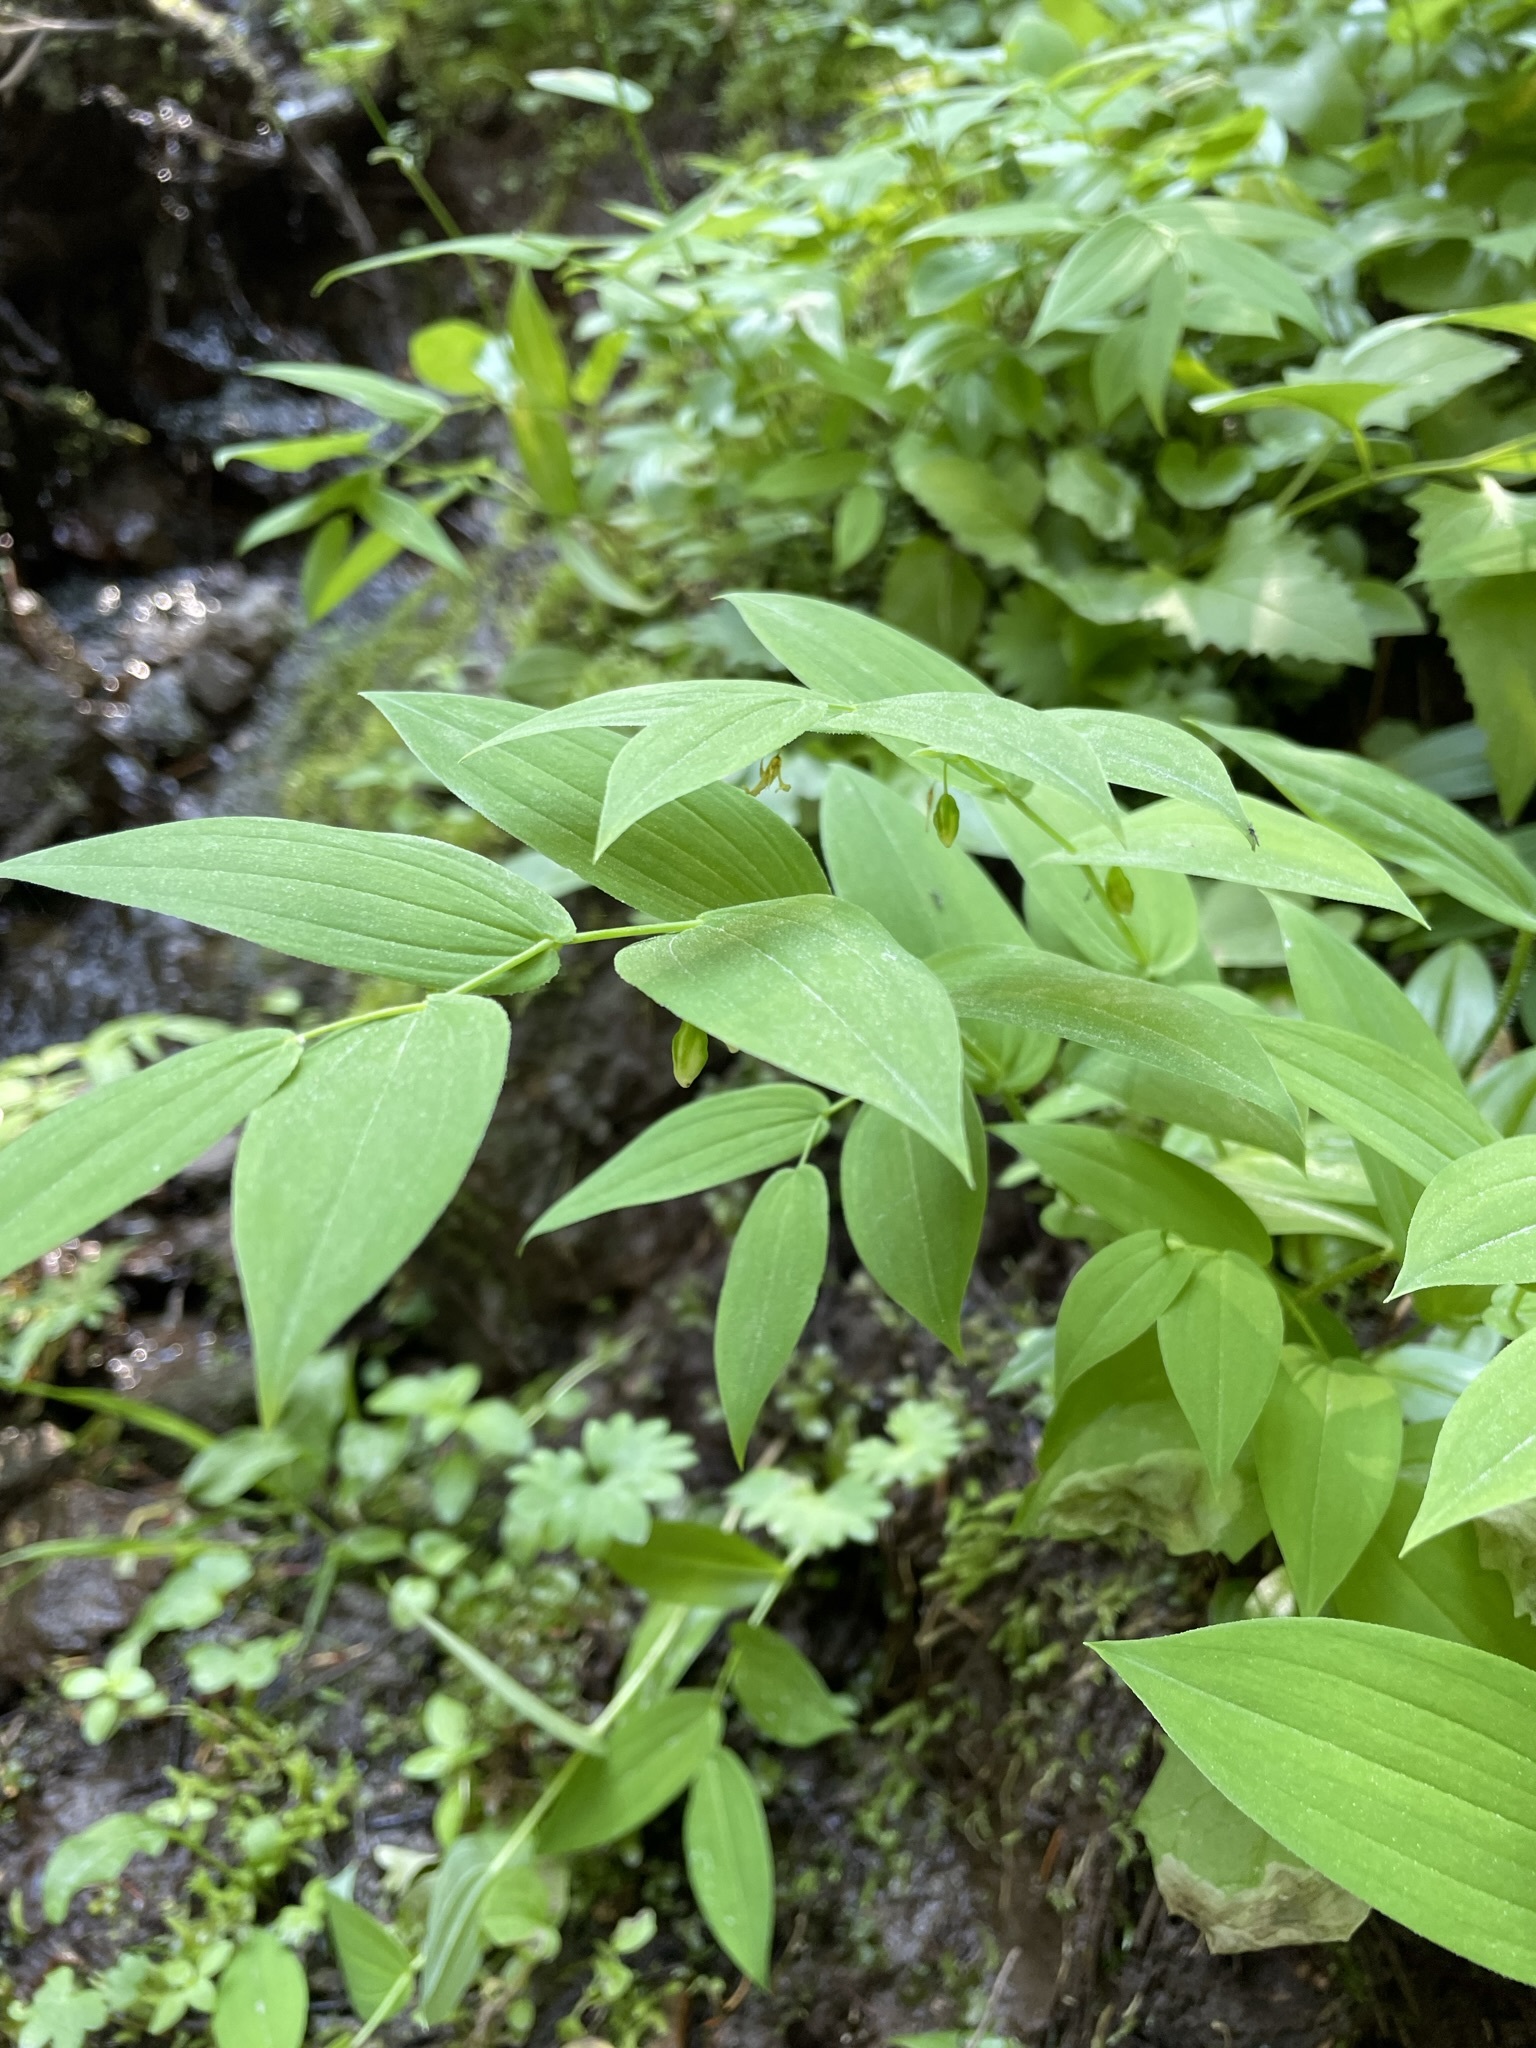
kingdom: Plantae
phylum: Tracheophyta
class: Liliopsida
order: Liliales
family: Liliaceae
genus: Streptopus
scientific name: Streptopus amplexifolius
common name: Clasp twisted stalk
